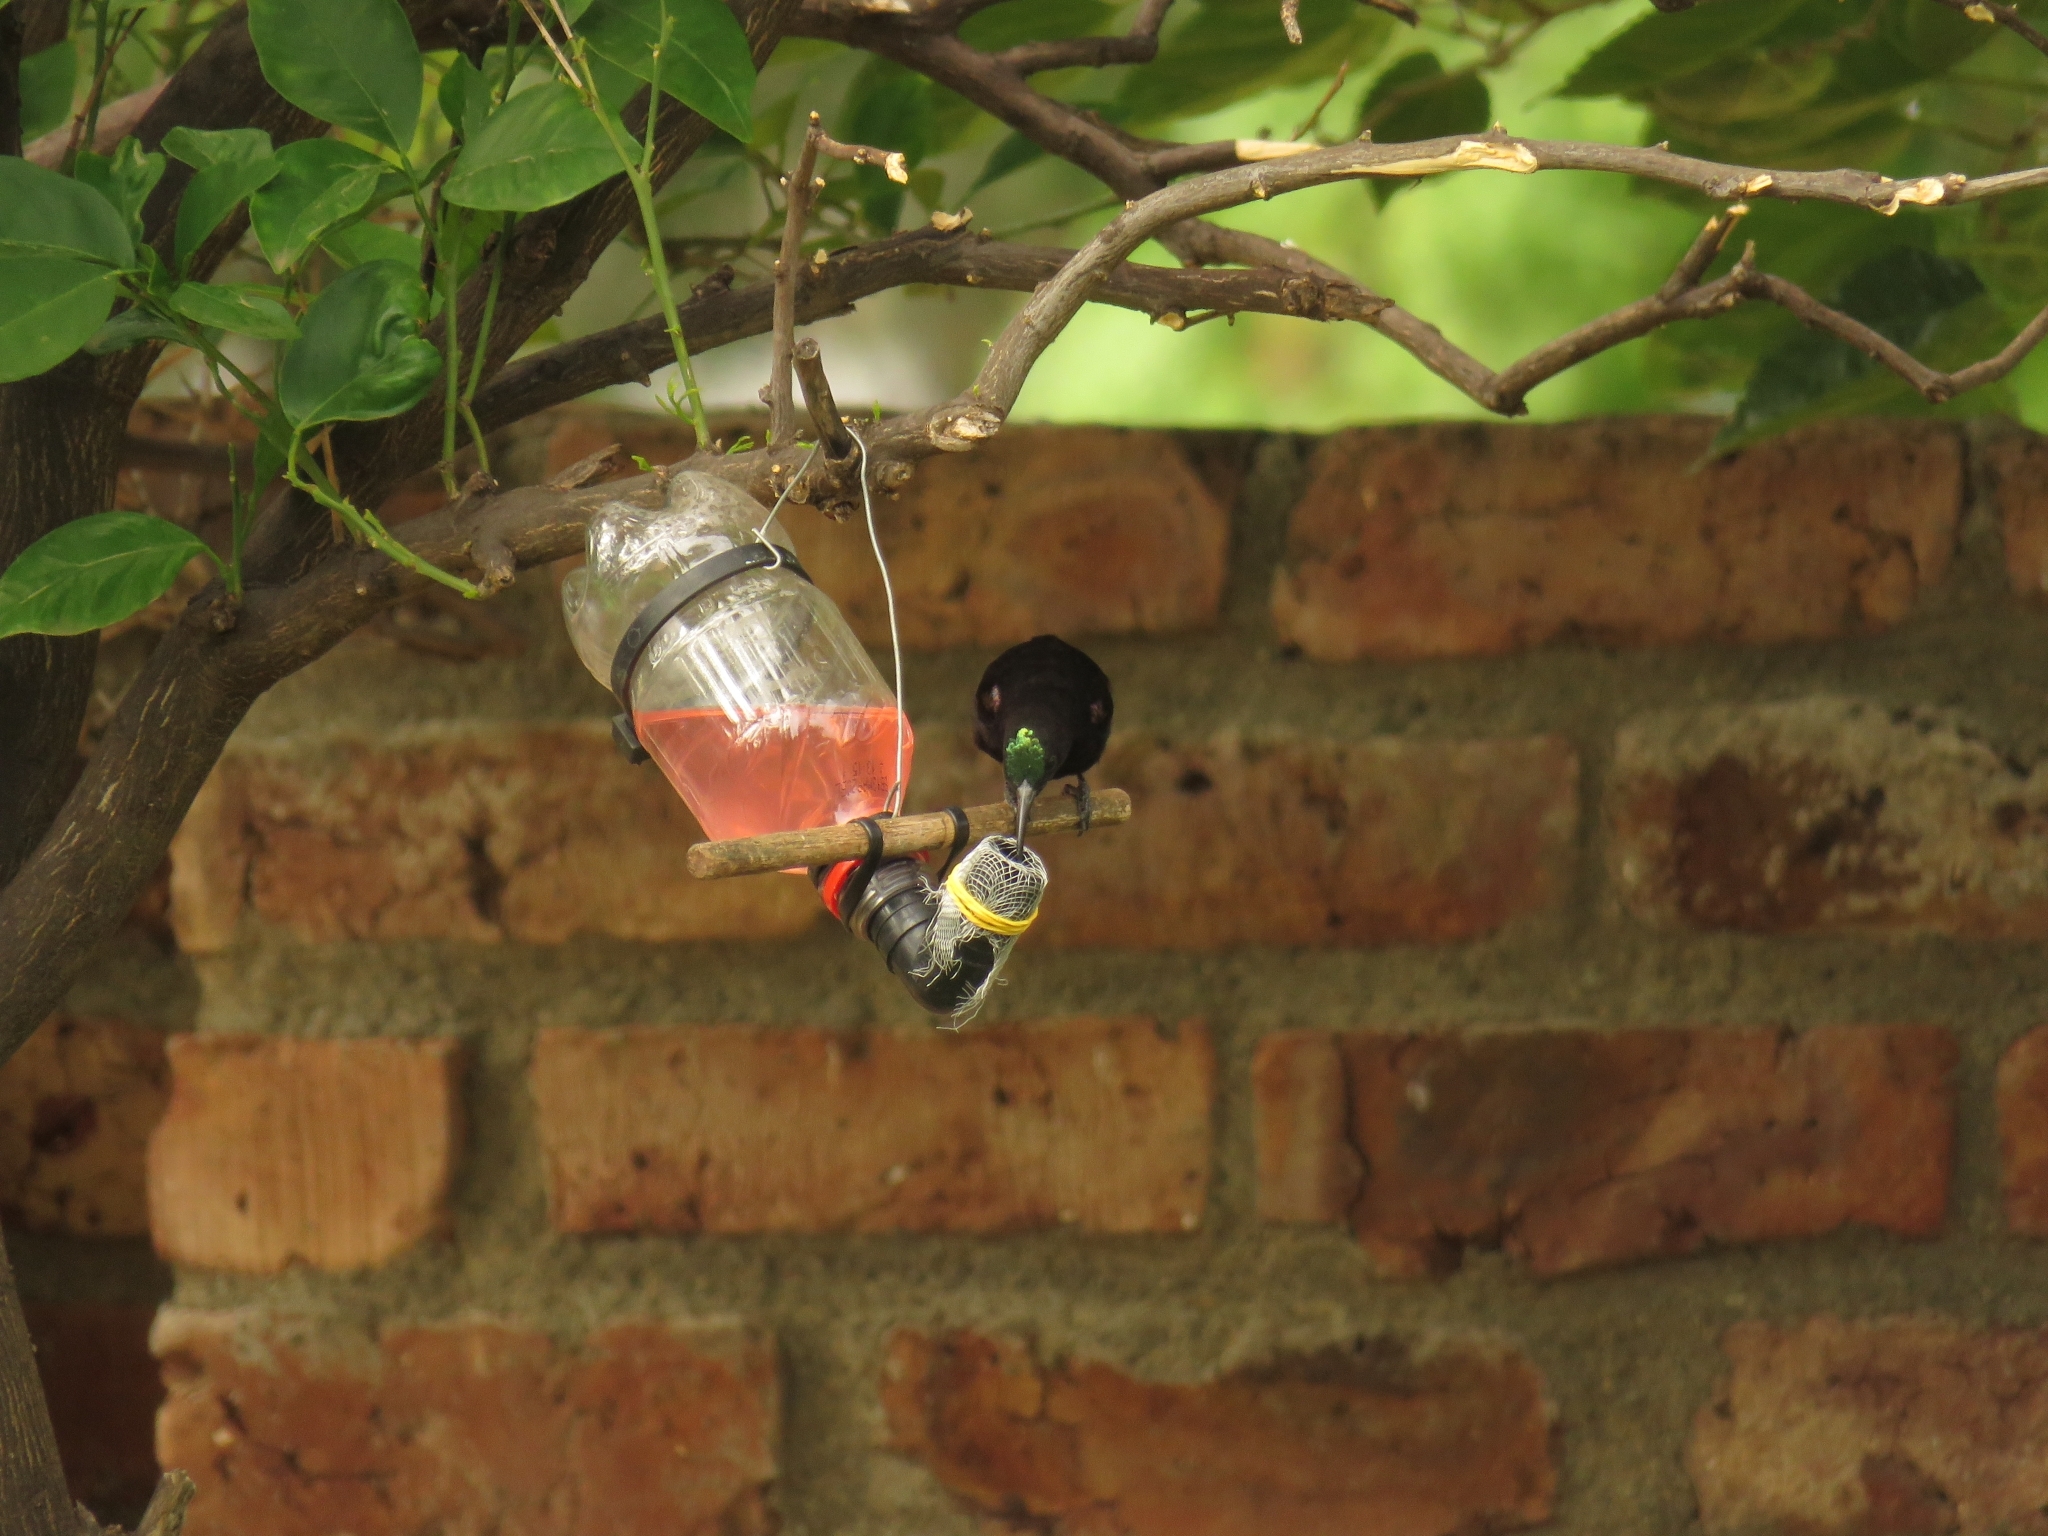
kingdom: Animalia
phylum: Chordata
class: Aves
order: Passeriformes
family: Nectariniidae
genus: Chalcomitra
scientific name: Chalcomitra amethystina
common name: Amethyst sunbird
